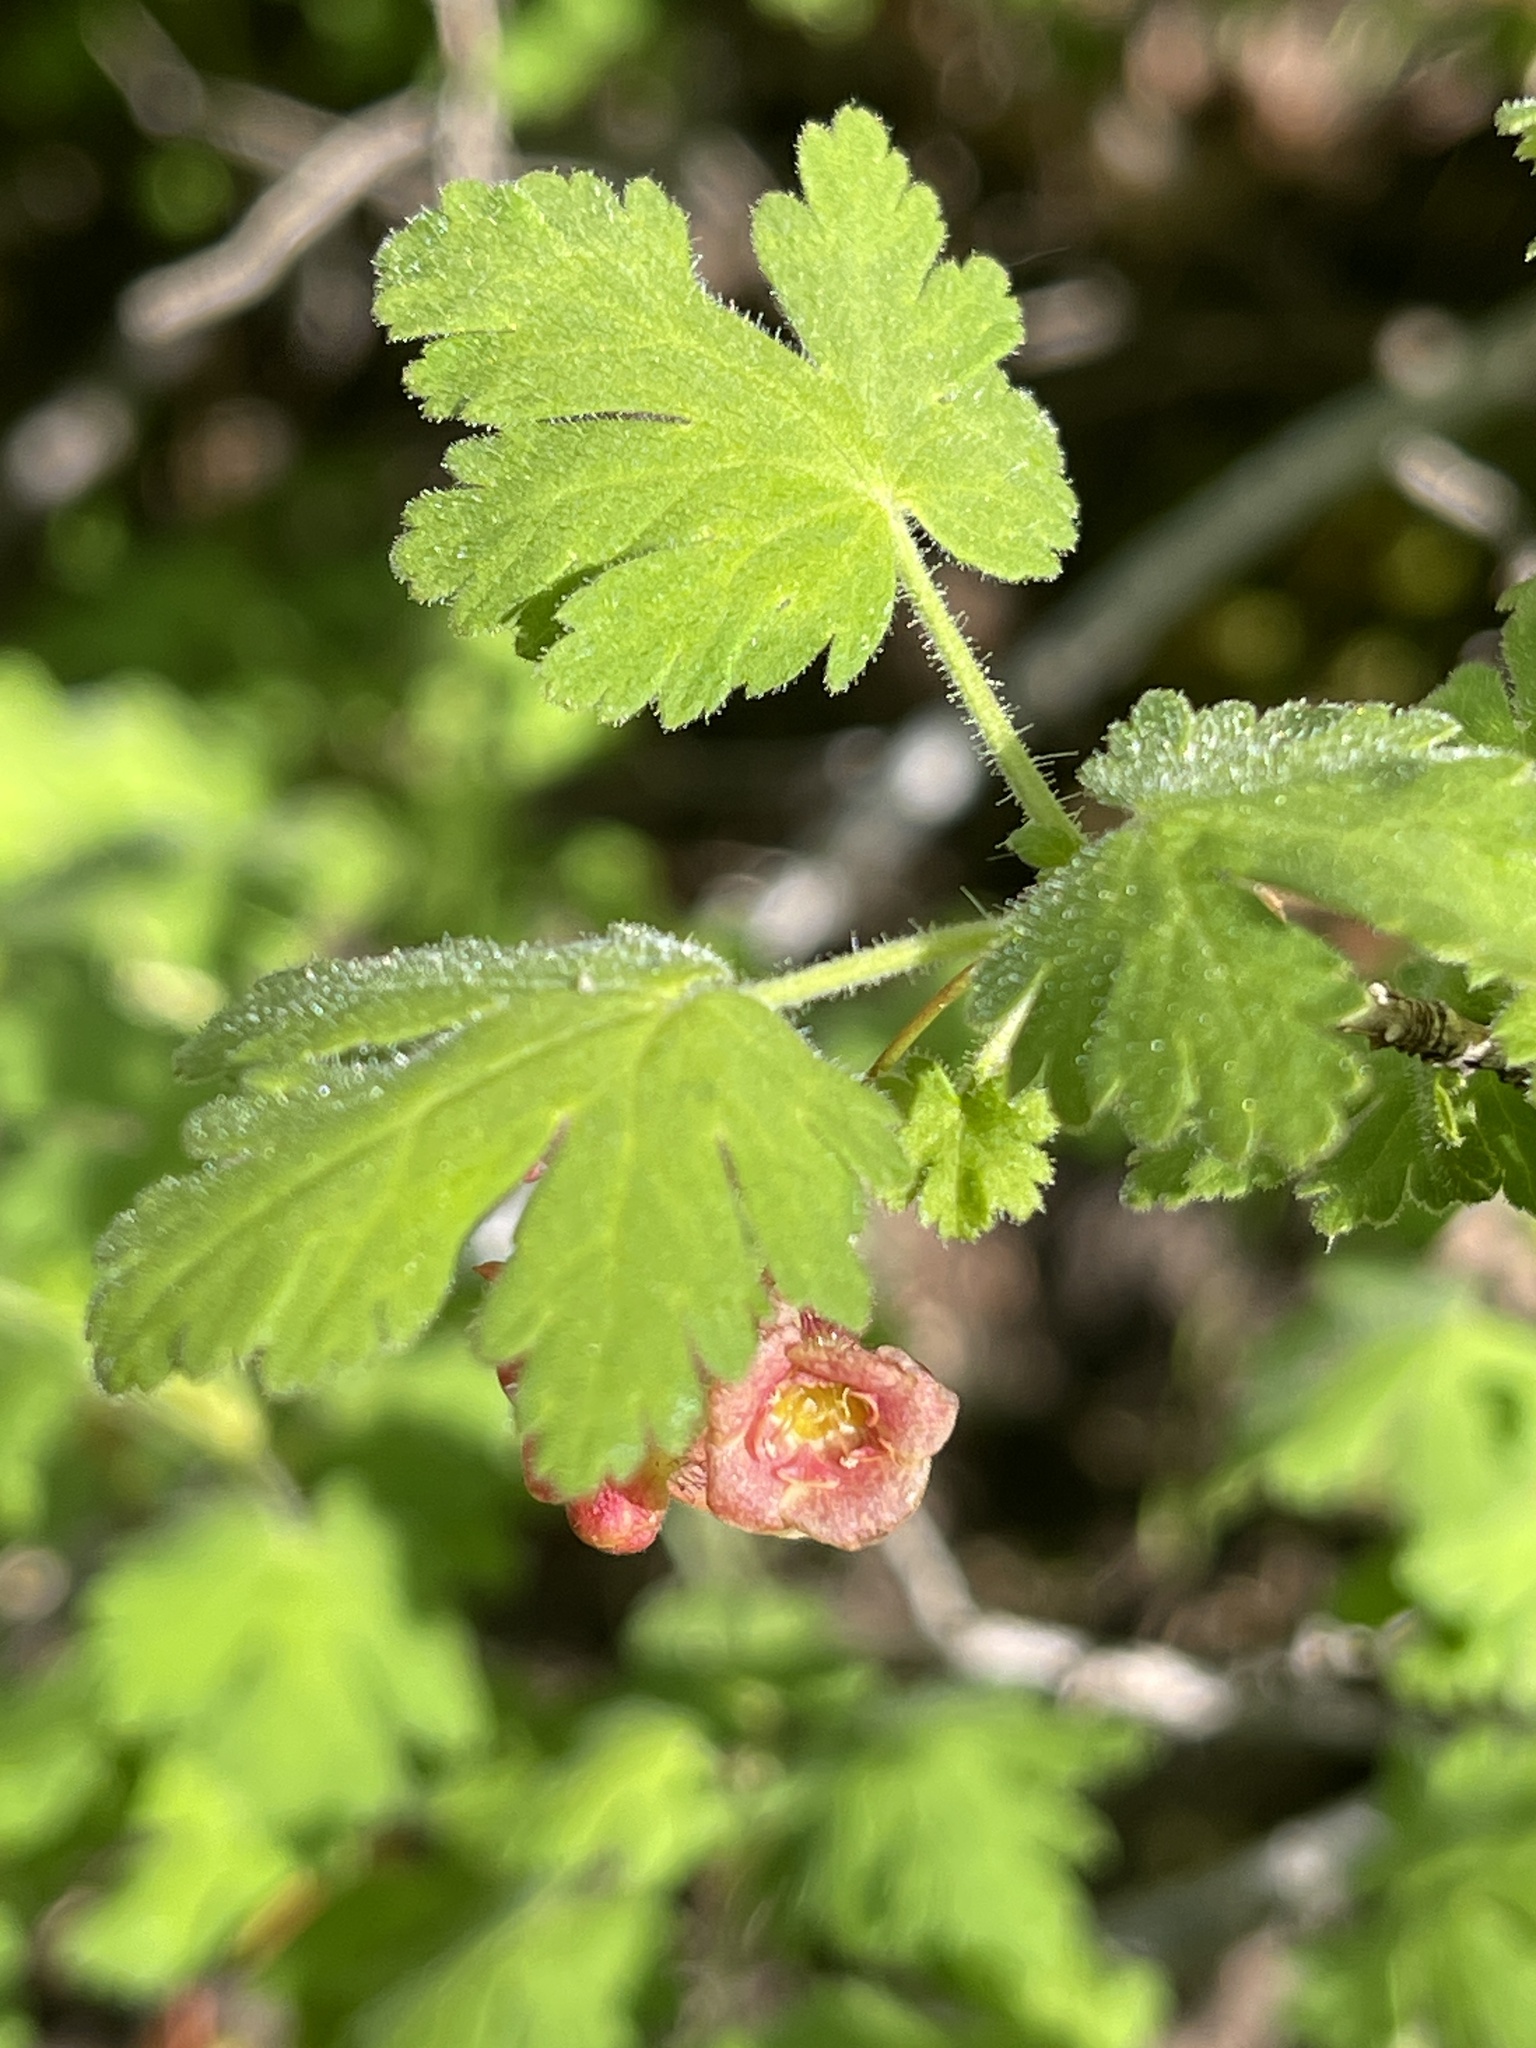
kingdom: Plantae
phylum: Tracheophyta
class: Magnoliopsida
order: Saxifragales
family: Grossulariaceae
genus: Ribes
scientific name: Ribes montigenum
